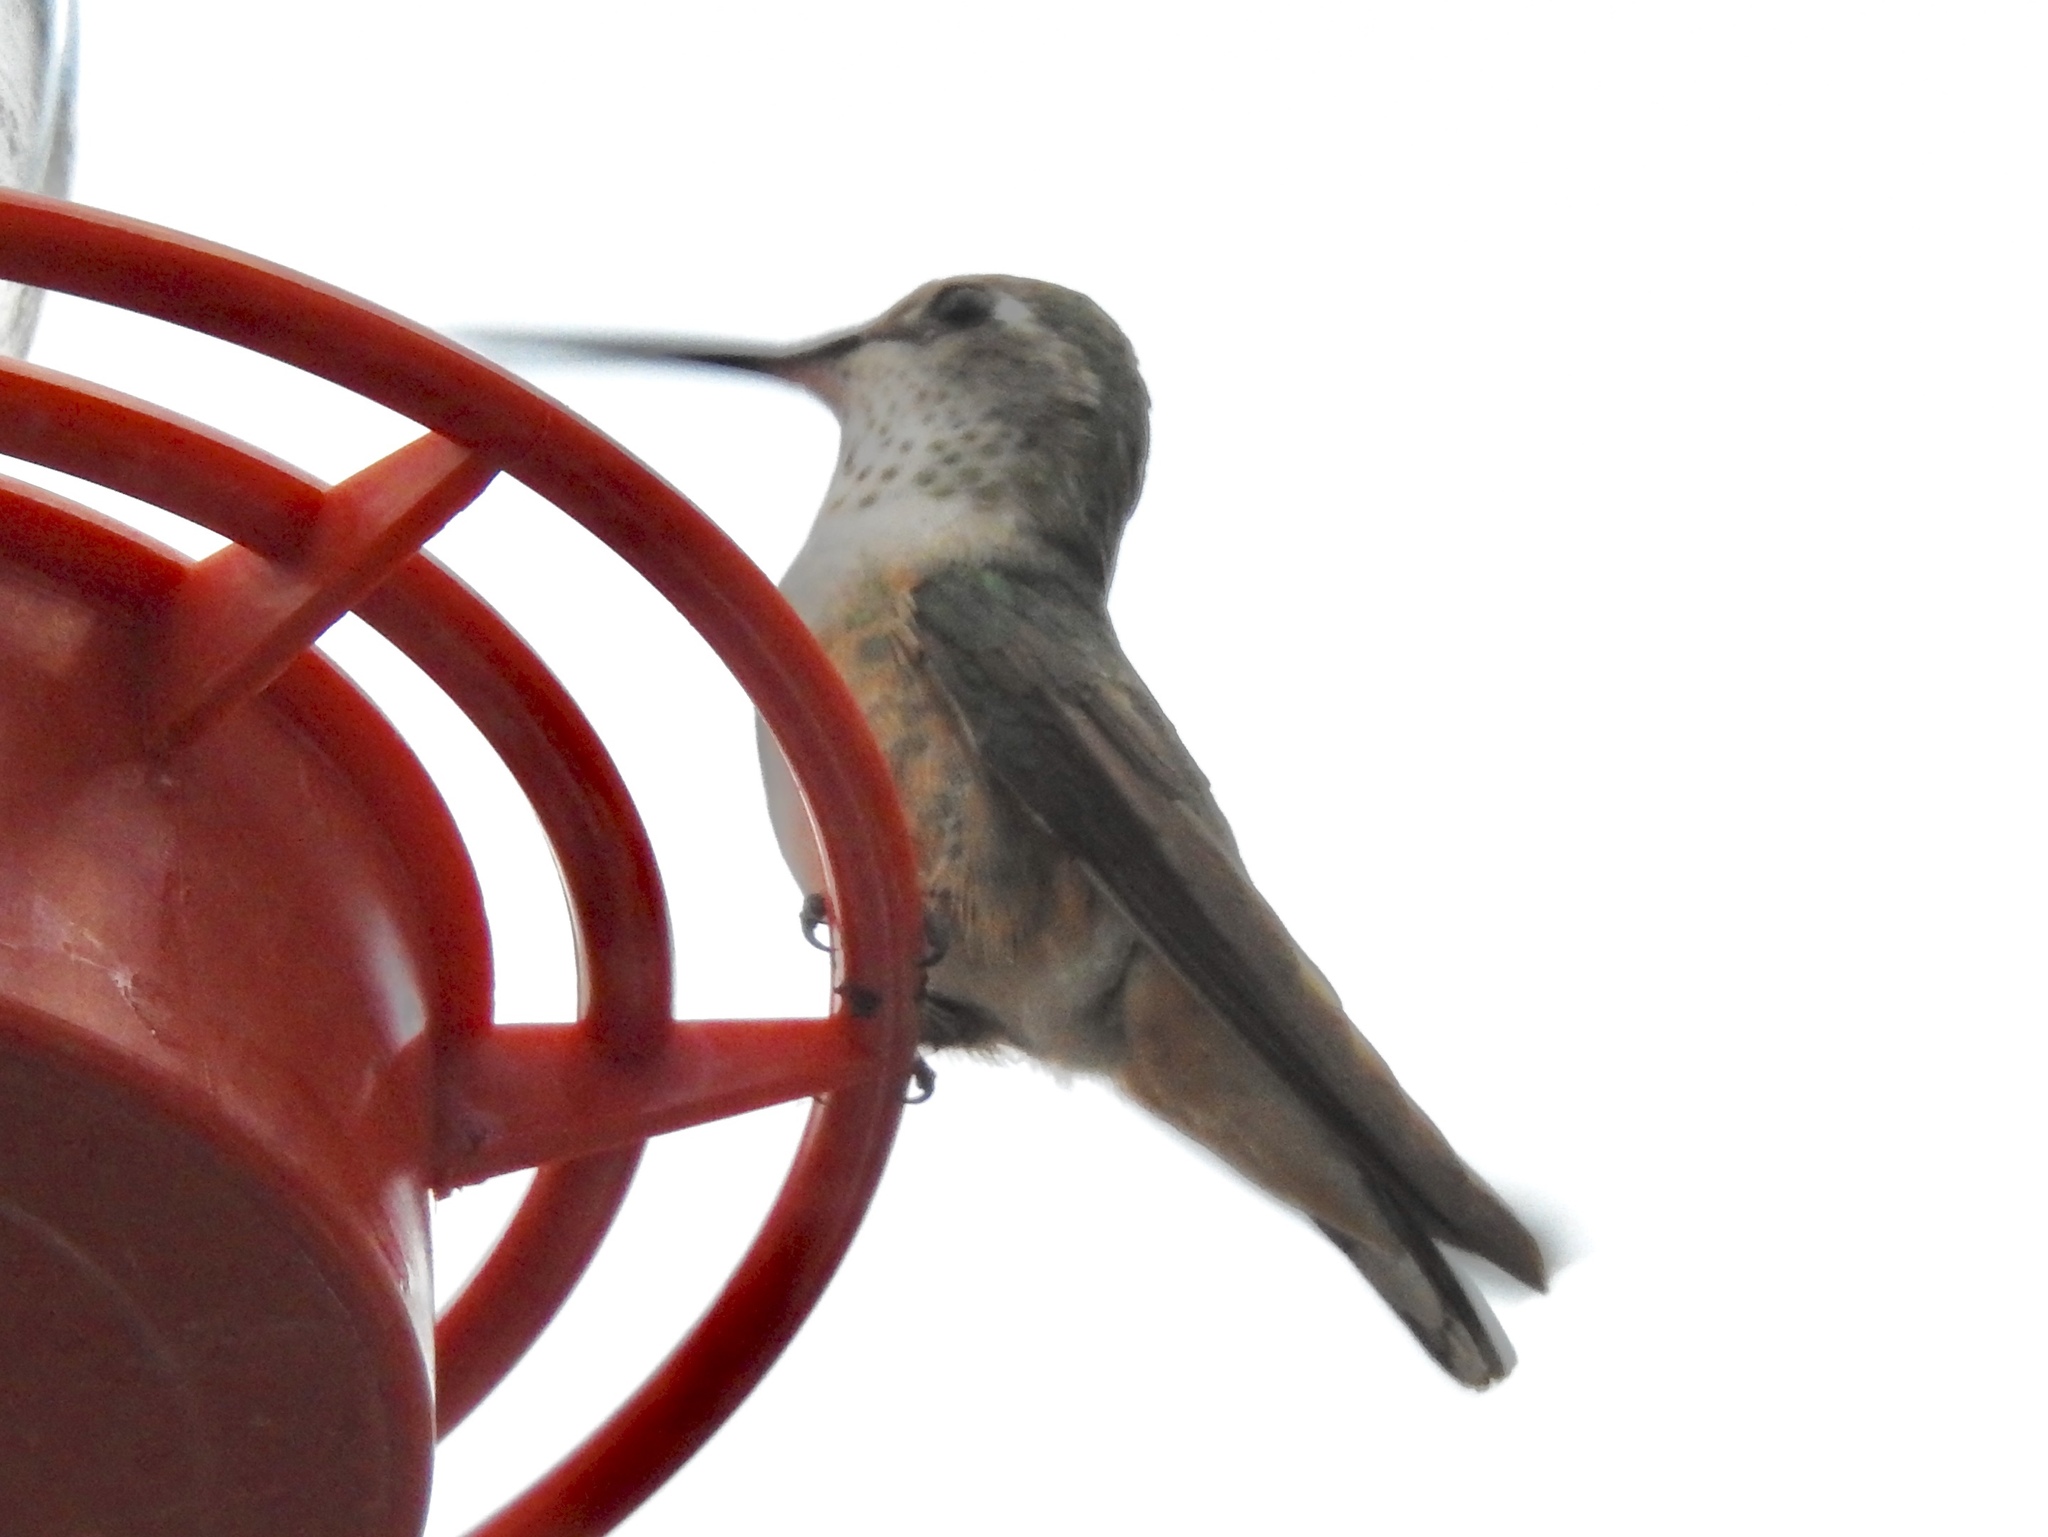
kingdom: Animalia
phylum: Chordata
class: Aves
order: Apodiformes
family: Trochilidae
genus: Selasphorus
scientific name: Selasphorus platycercus
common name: Broad-tailed hummingbird
